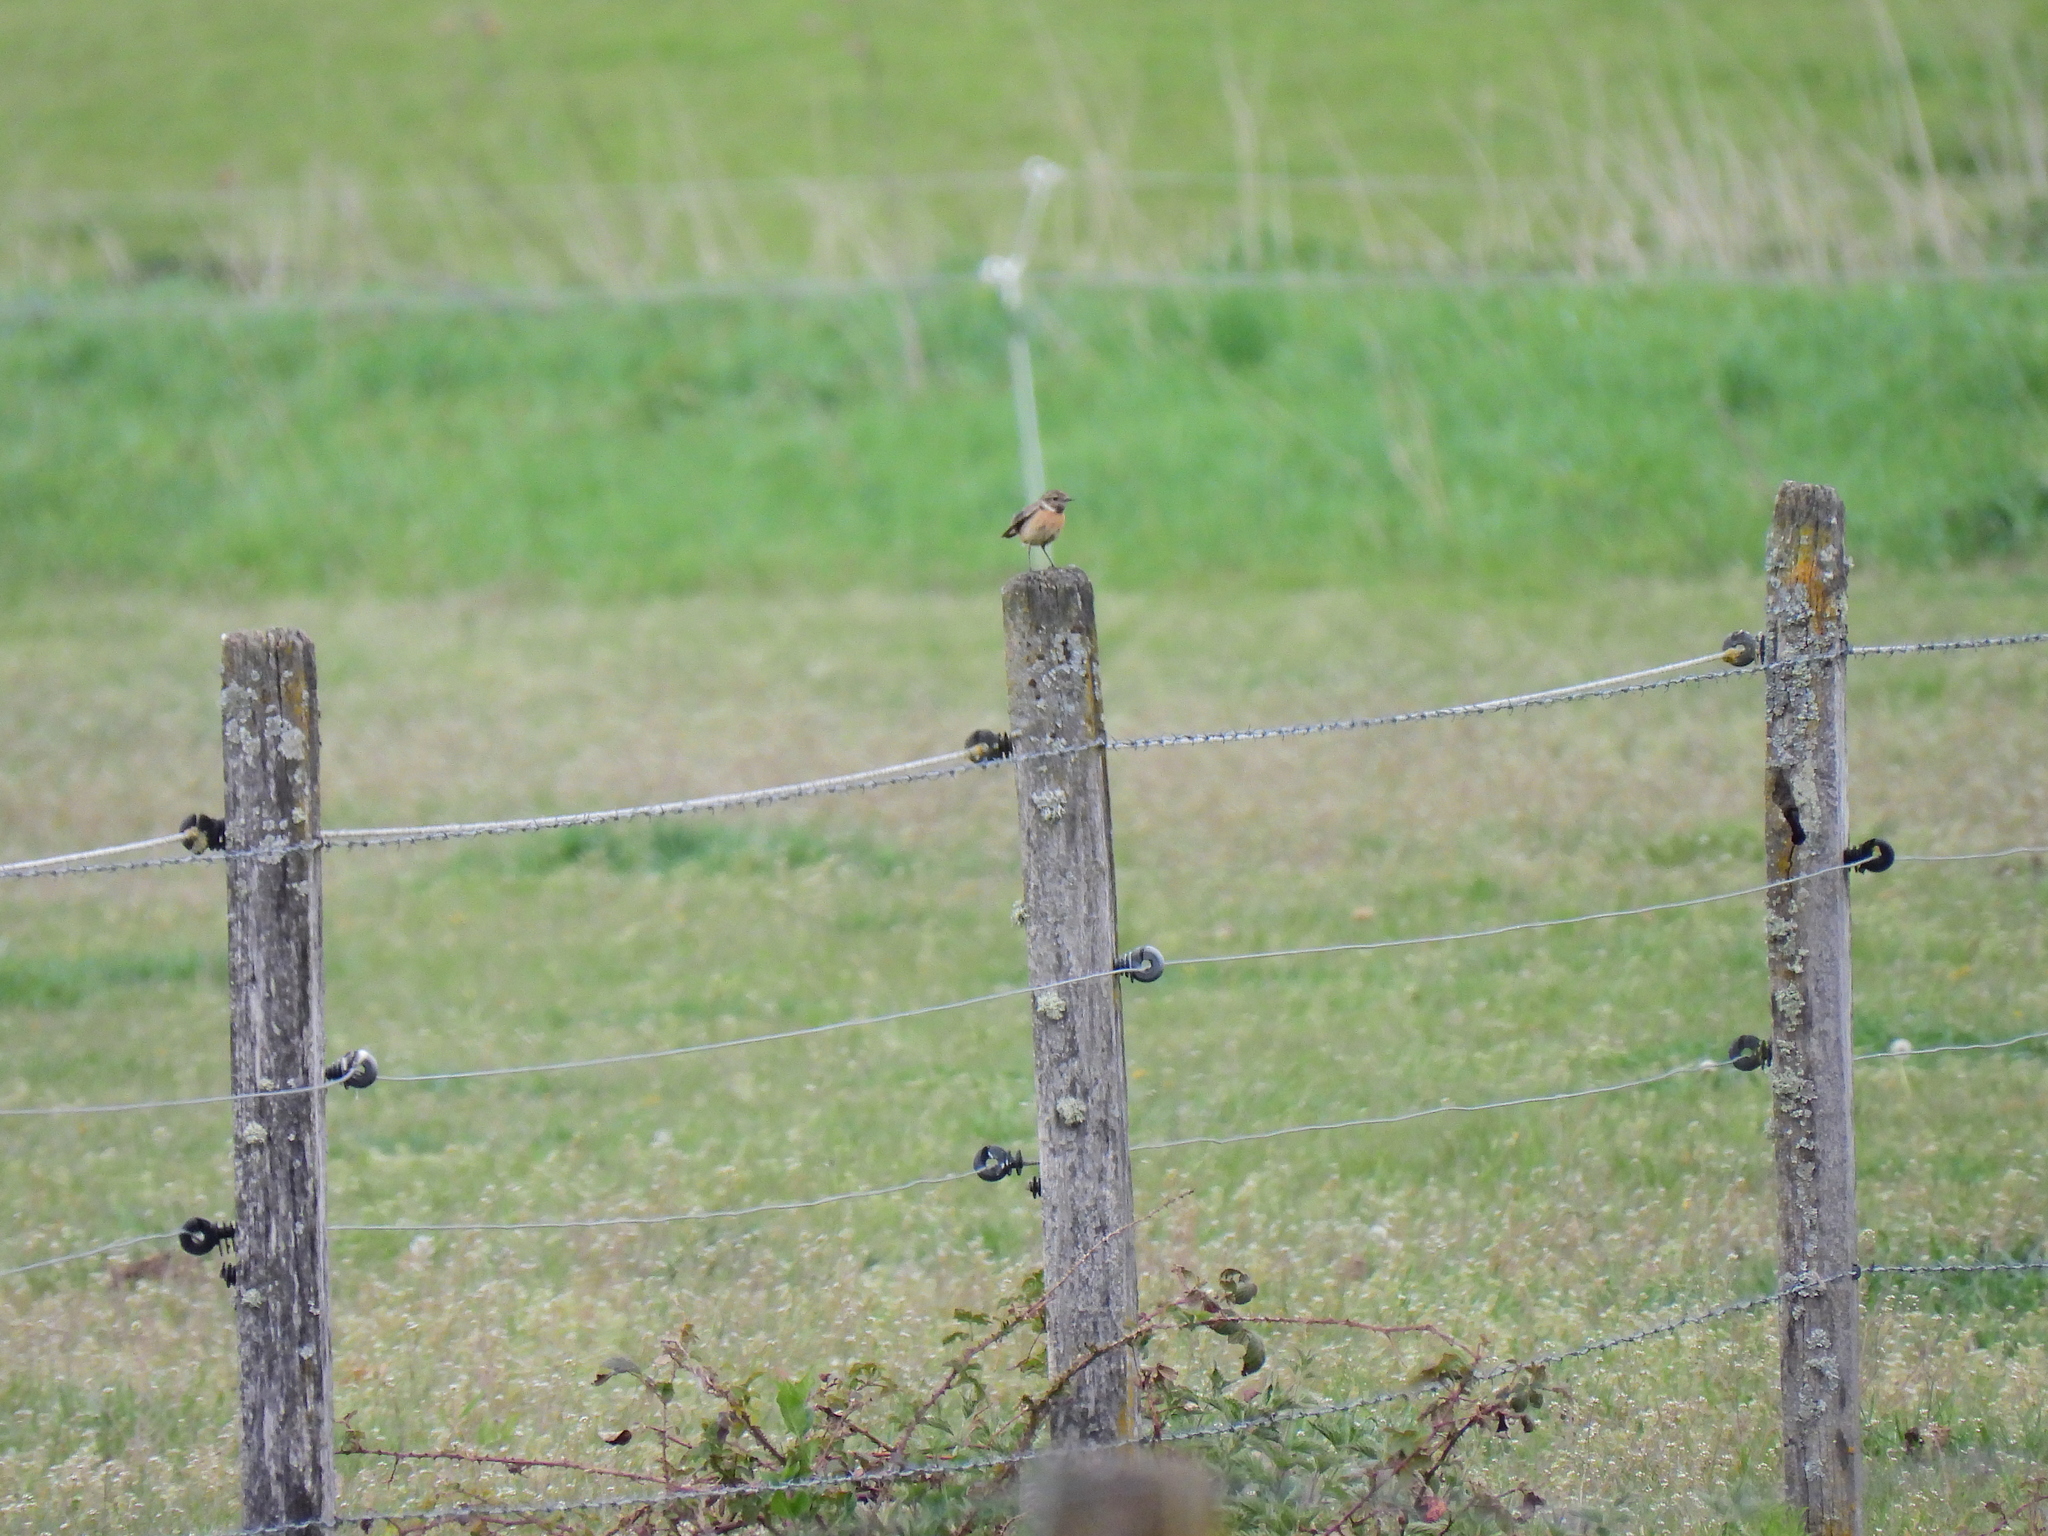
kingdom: Animalia
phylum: Chordata
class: Aves
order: Passeriformes
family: Muscicapidae
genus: Saxicola
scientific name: Saxicola rubicola
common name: European stonechat
